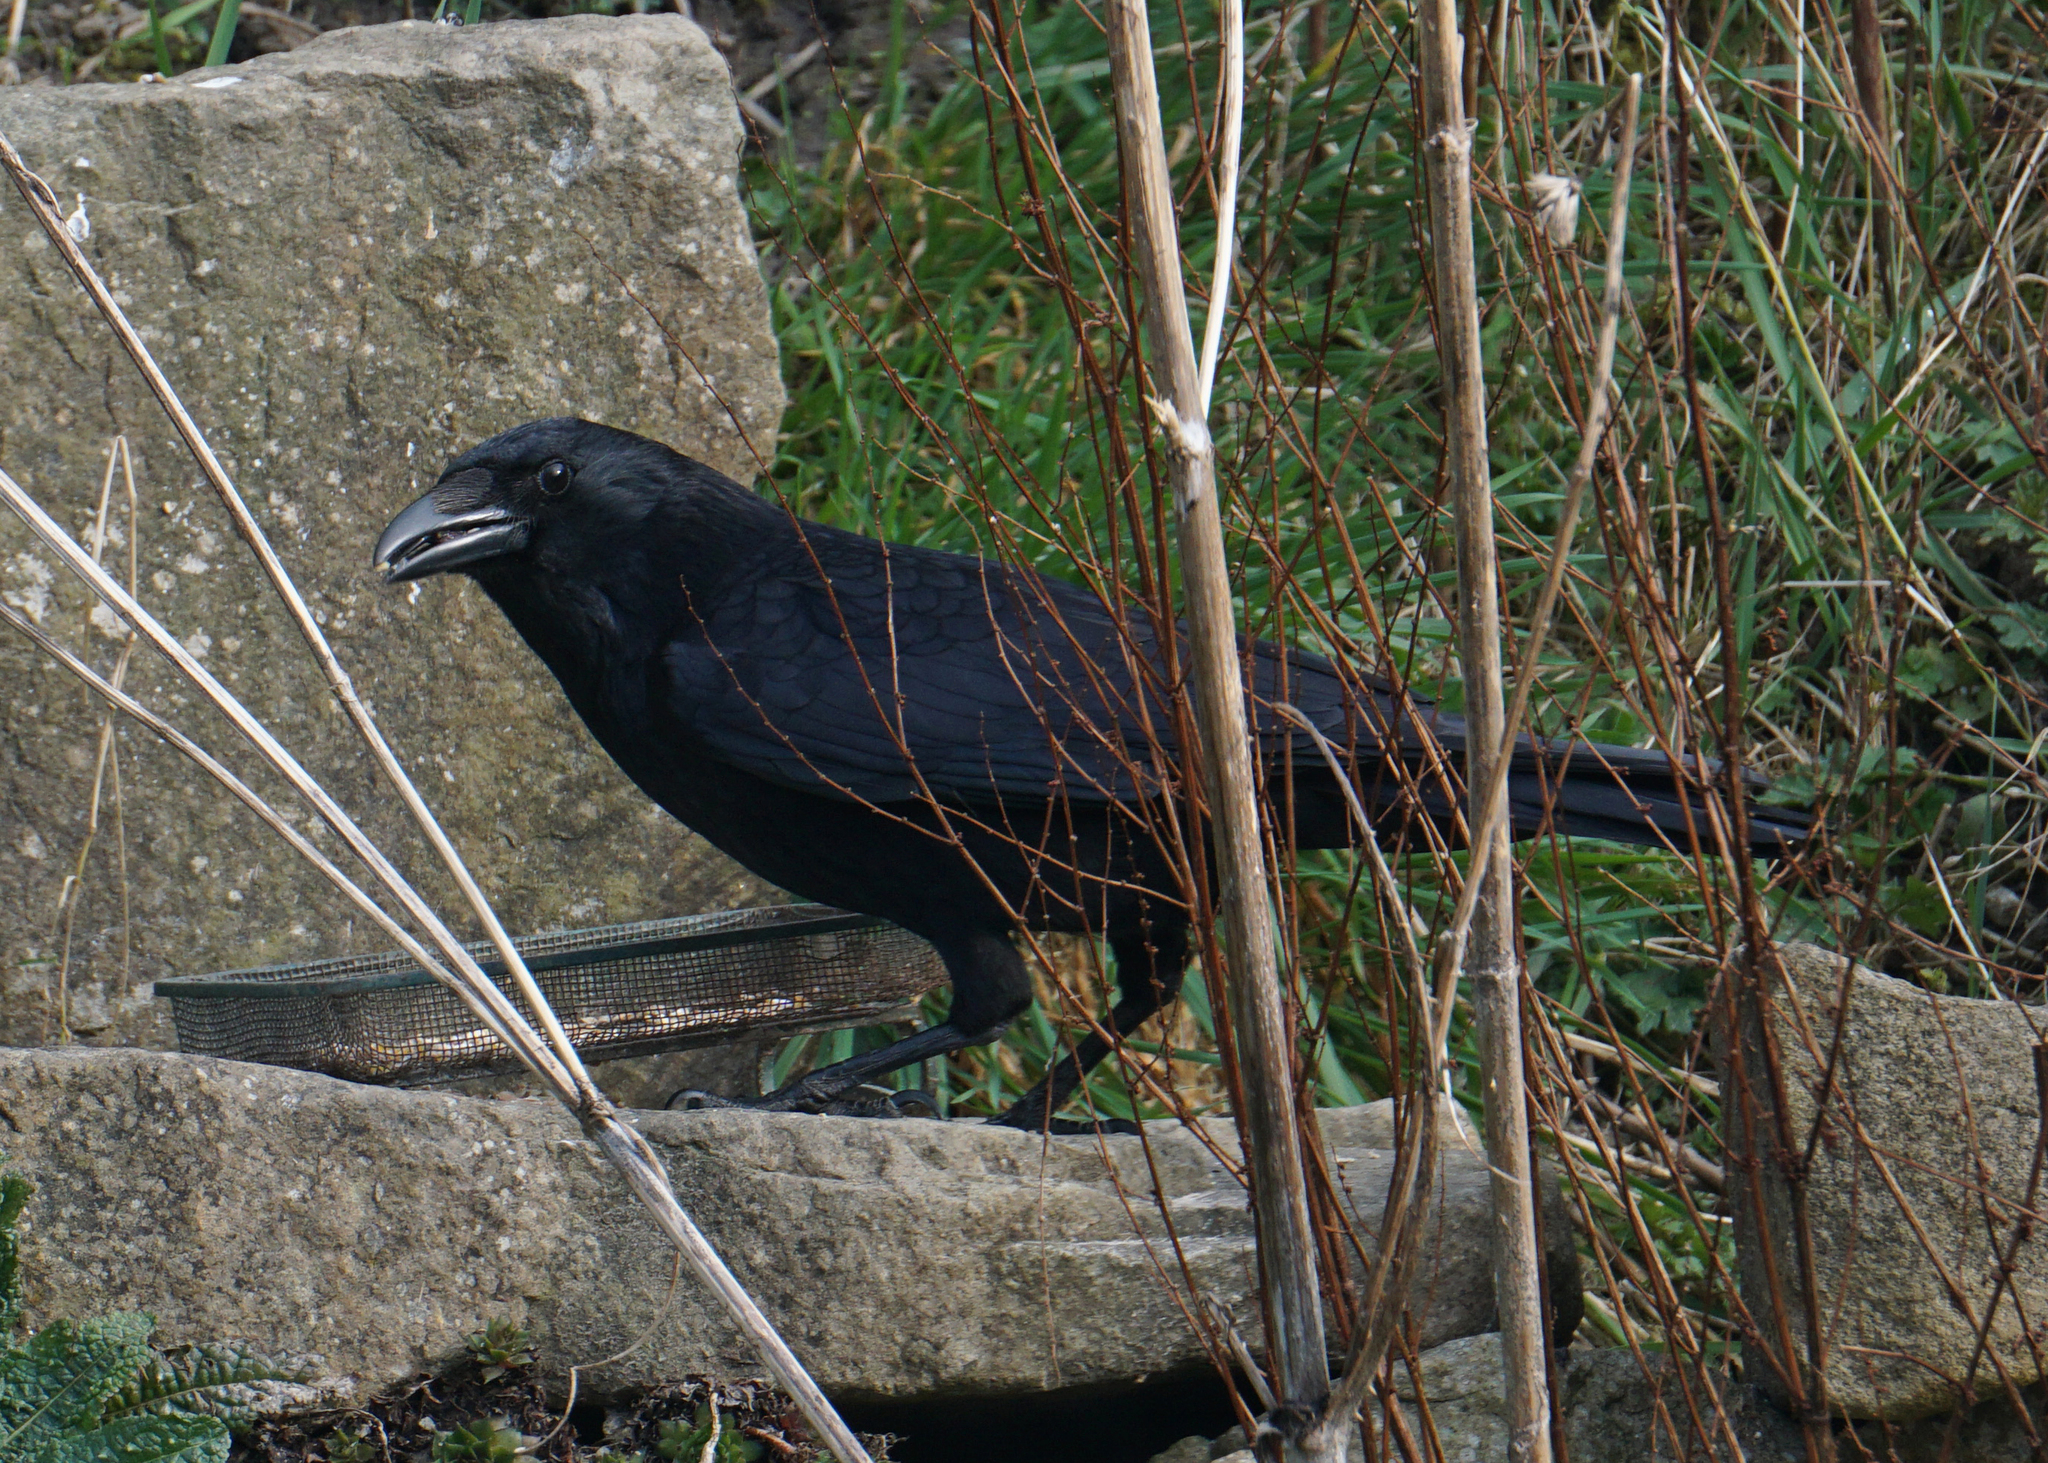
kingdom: Animalia
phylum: Chordata
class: Aves
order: Passeriformes
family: Corvidae
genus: Corvus
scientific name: Corvus corone
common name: Carrion crow
